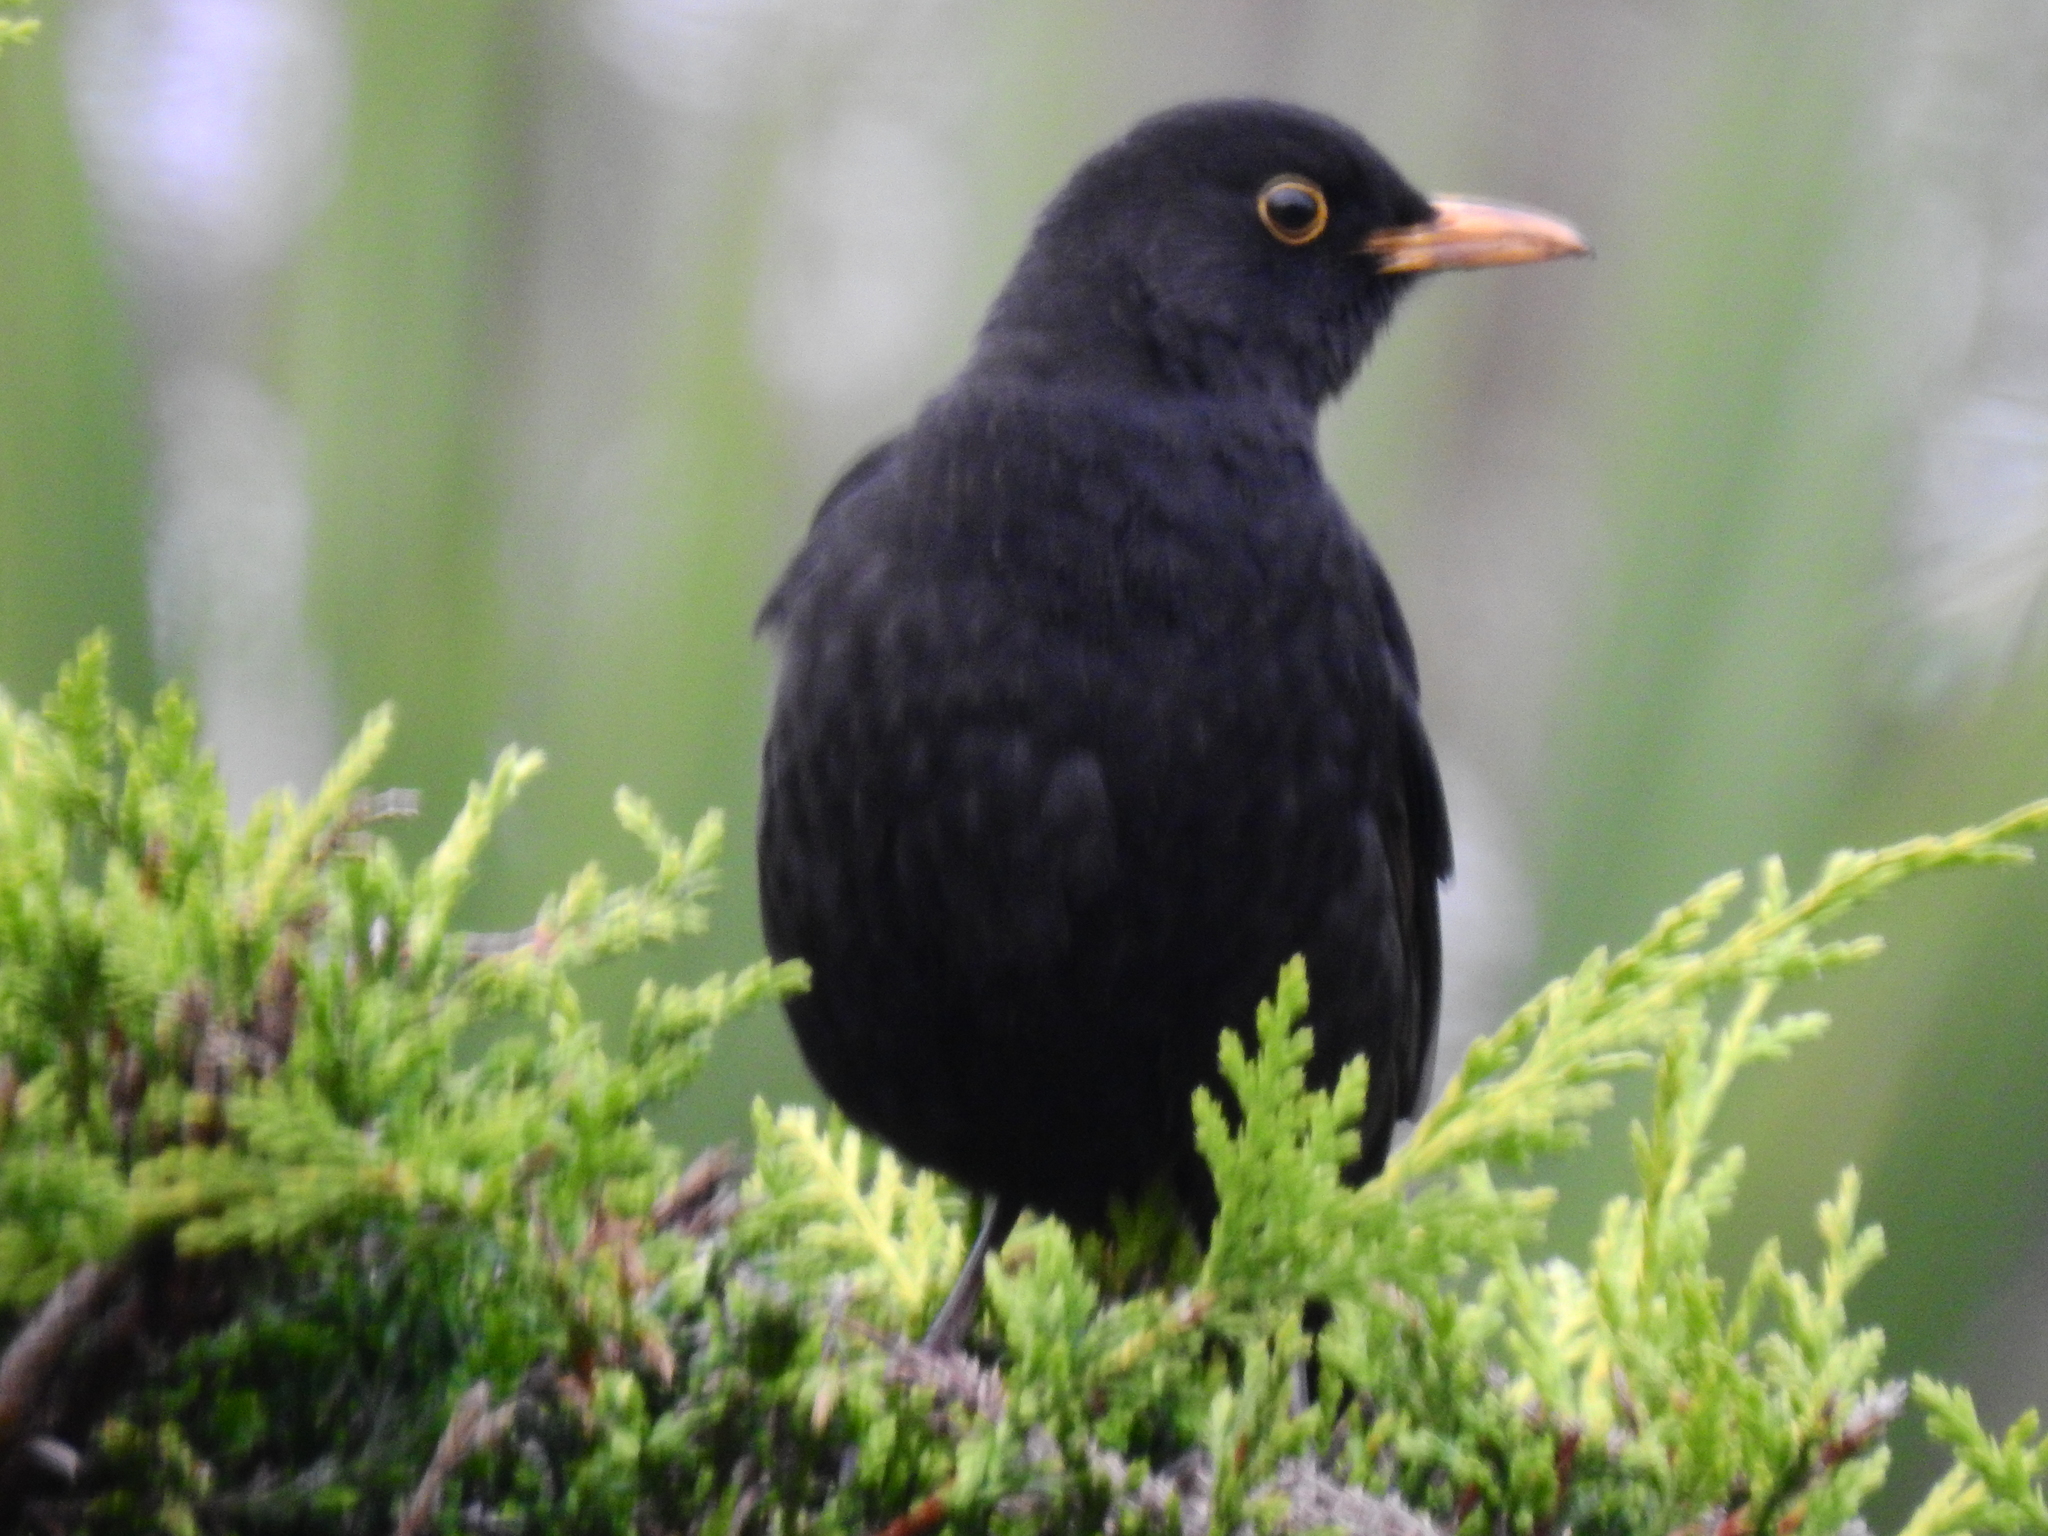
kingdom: Animalia
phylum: Chordata
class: Aves
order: Passeriformes
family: Turdidae
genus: Turdus
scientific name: Turdus merula
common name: Common blackbird
